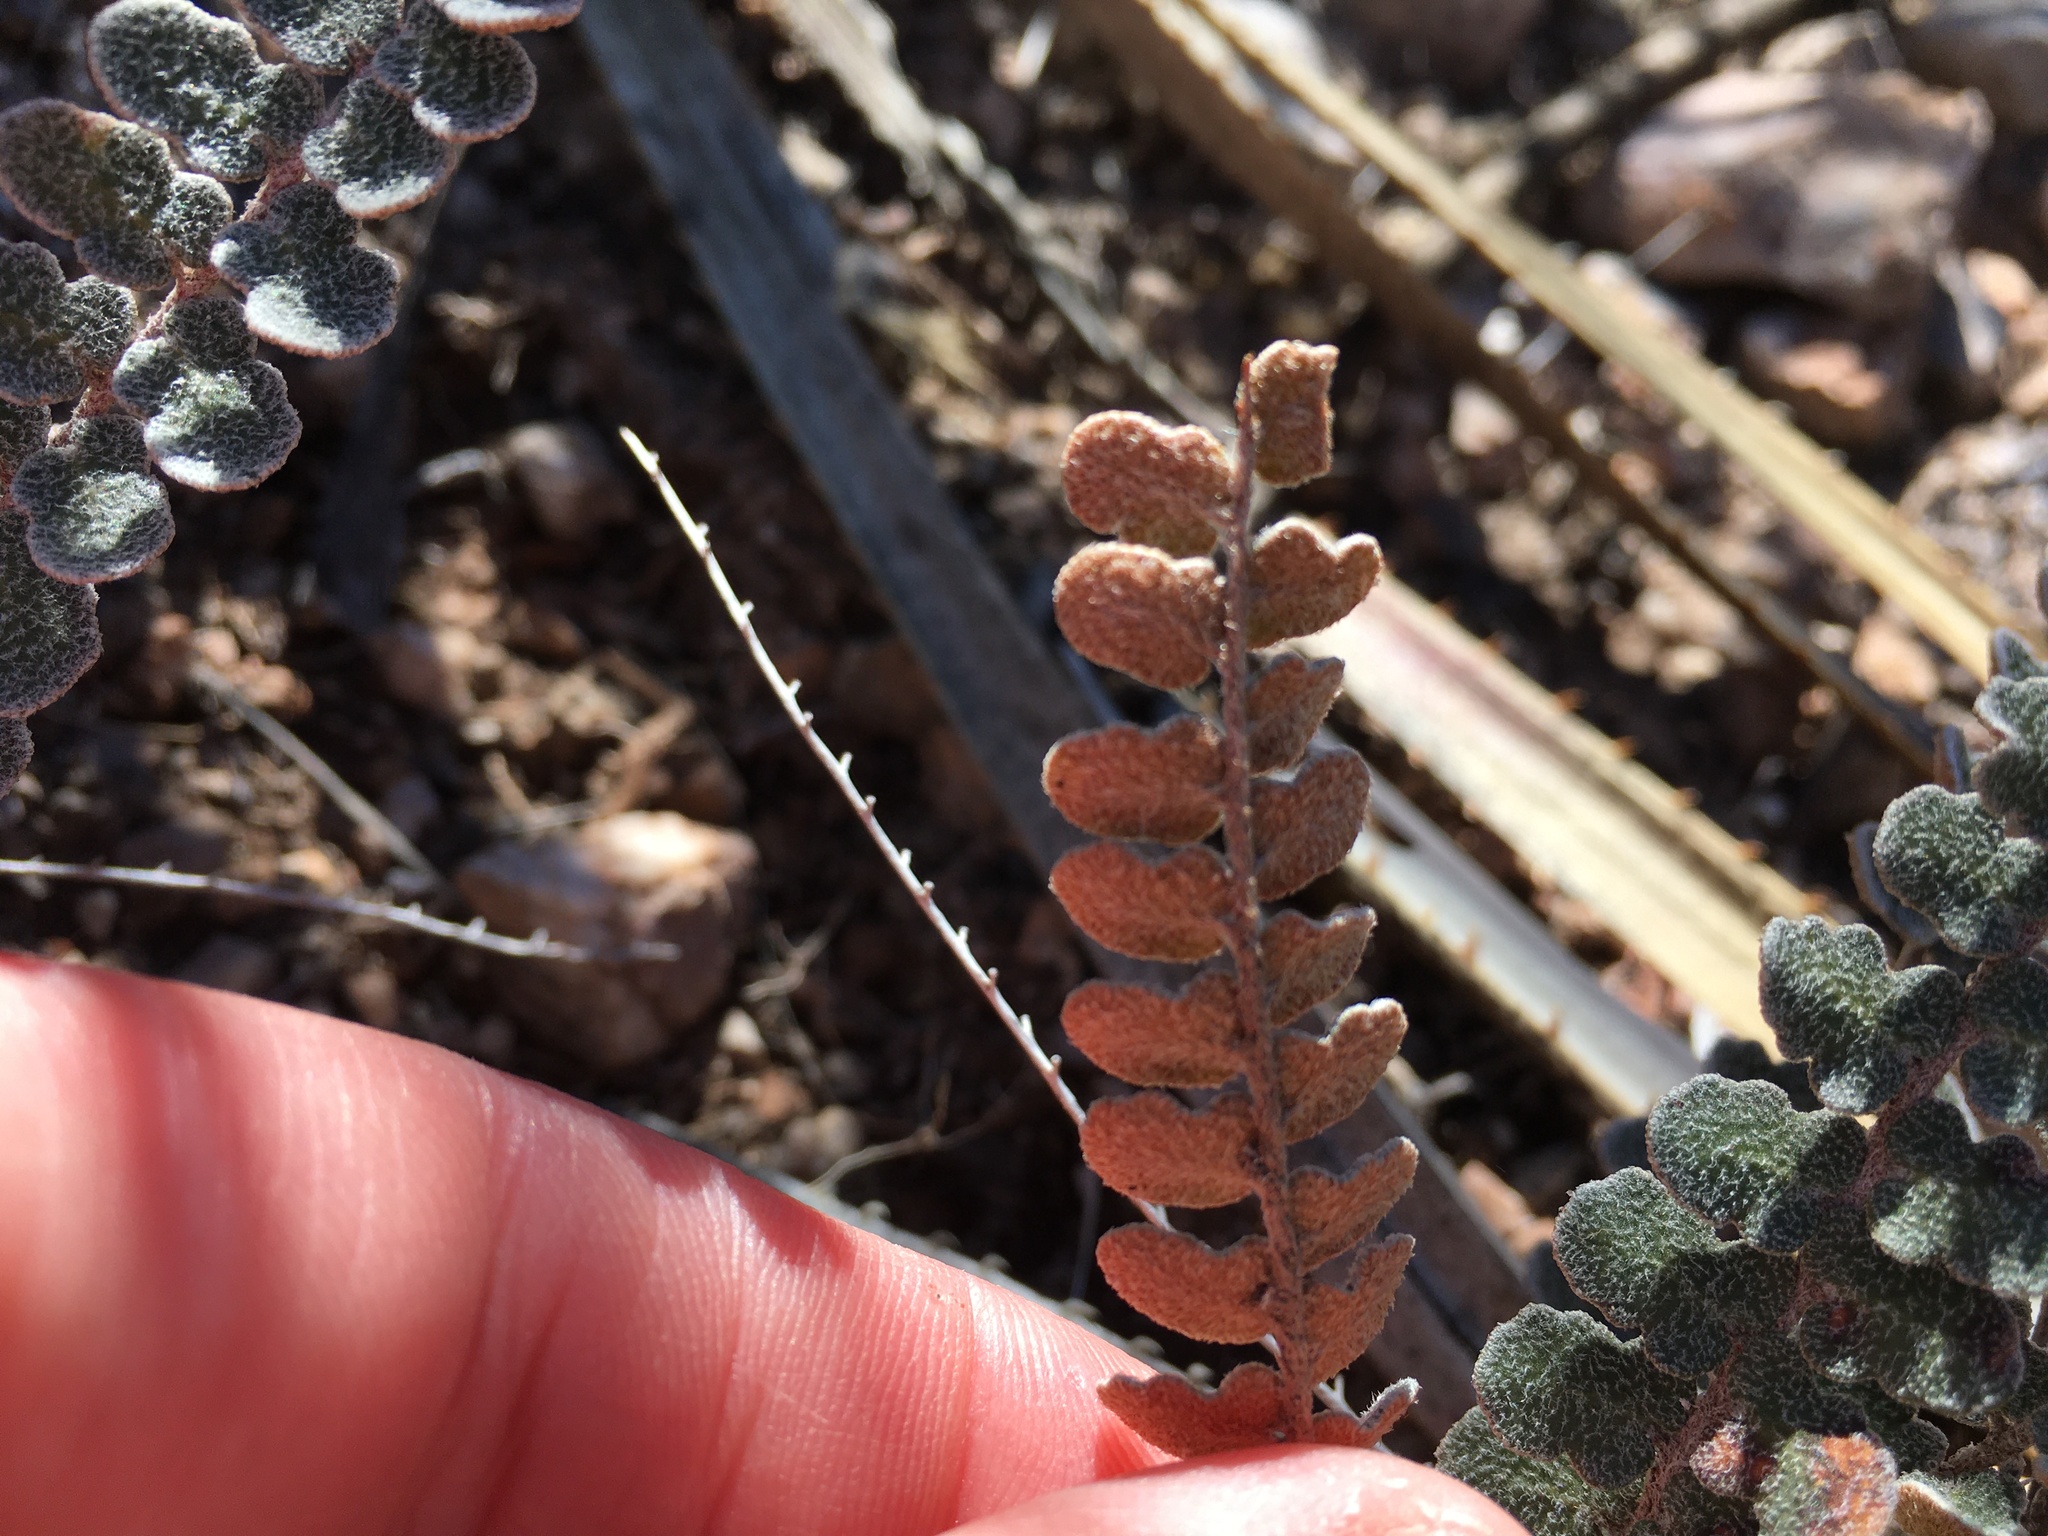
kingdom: Plantae
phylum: Tracheophyta
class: Polypodiopsida
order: Polypodiales
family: Pteridaceae
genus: Astrolepis
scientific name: Astrolepis cochisensis
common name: Scaly cloak fern
